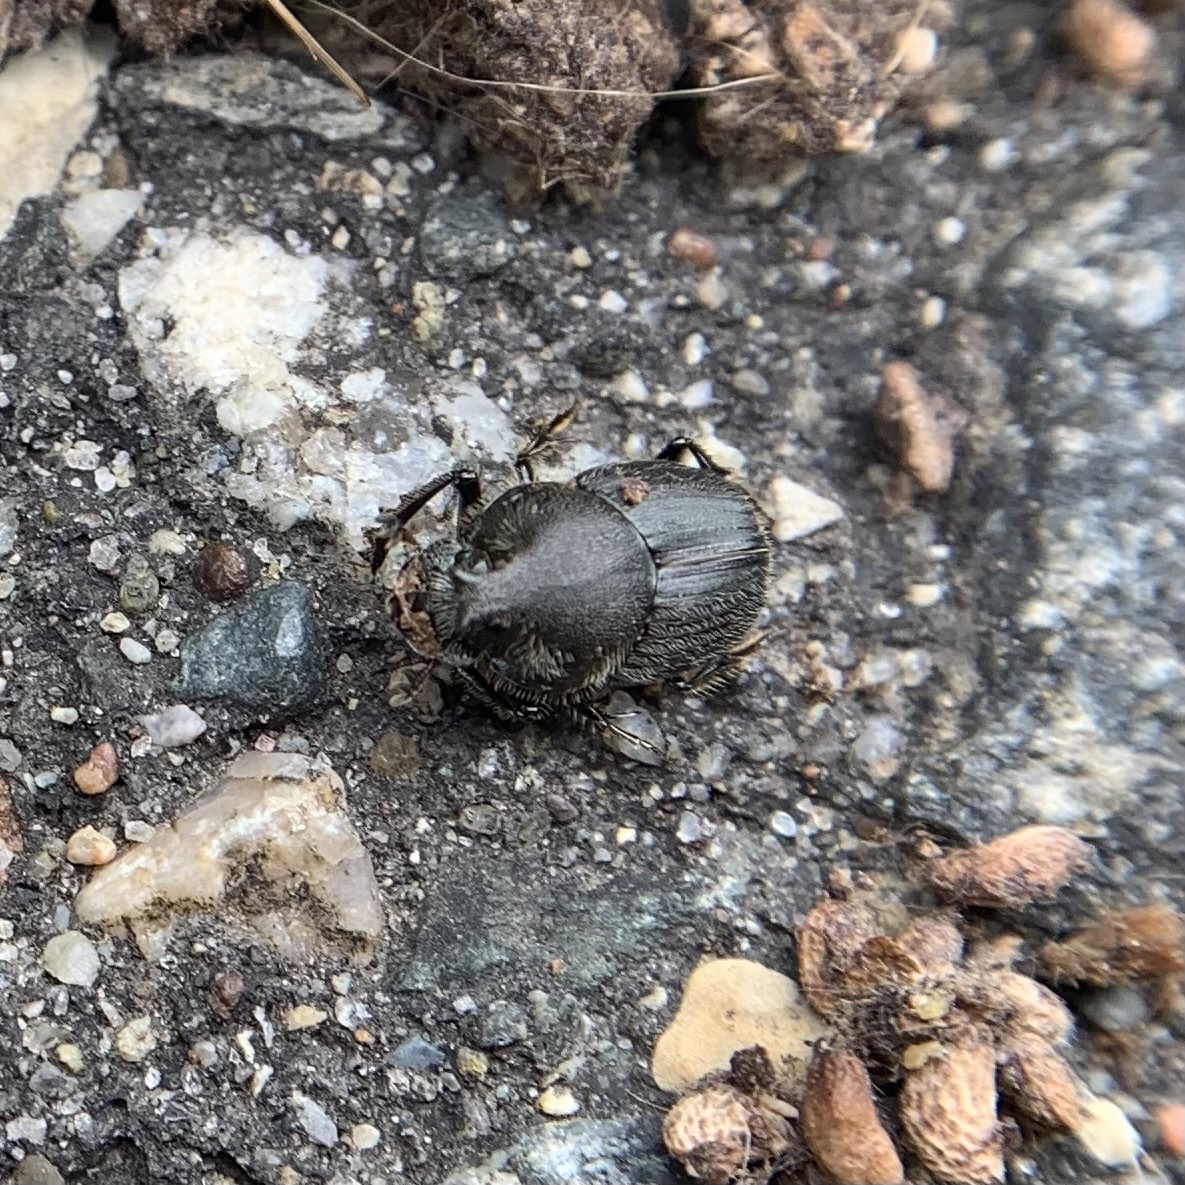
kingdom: Animalia
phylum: Arthropoda
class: Insecta
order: Coleoptera
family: Scarabaeidae
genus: Onthophagus
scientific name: Onthophagus hecate
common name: Scooped scarab
